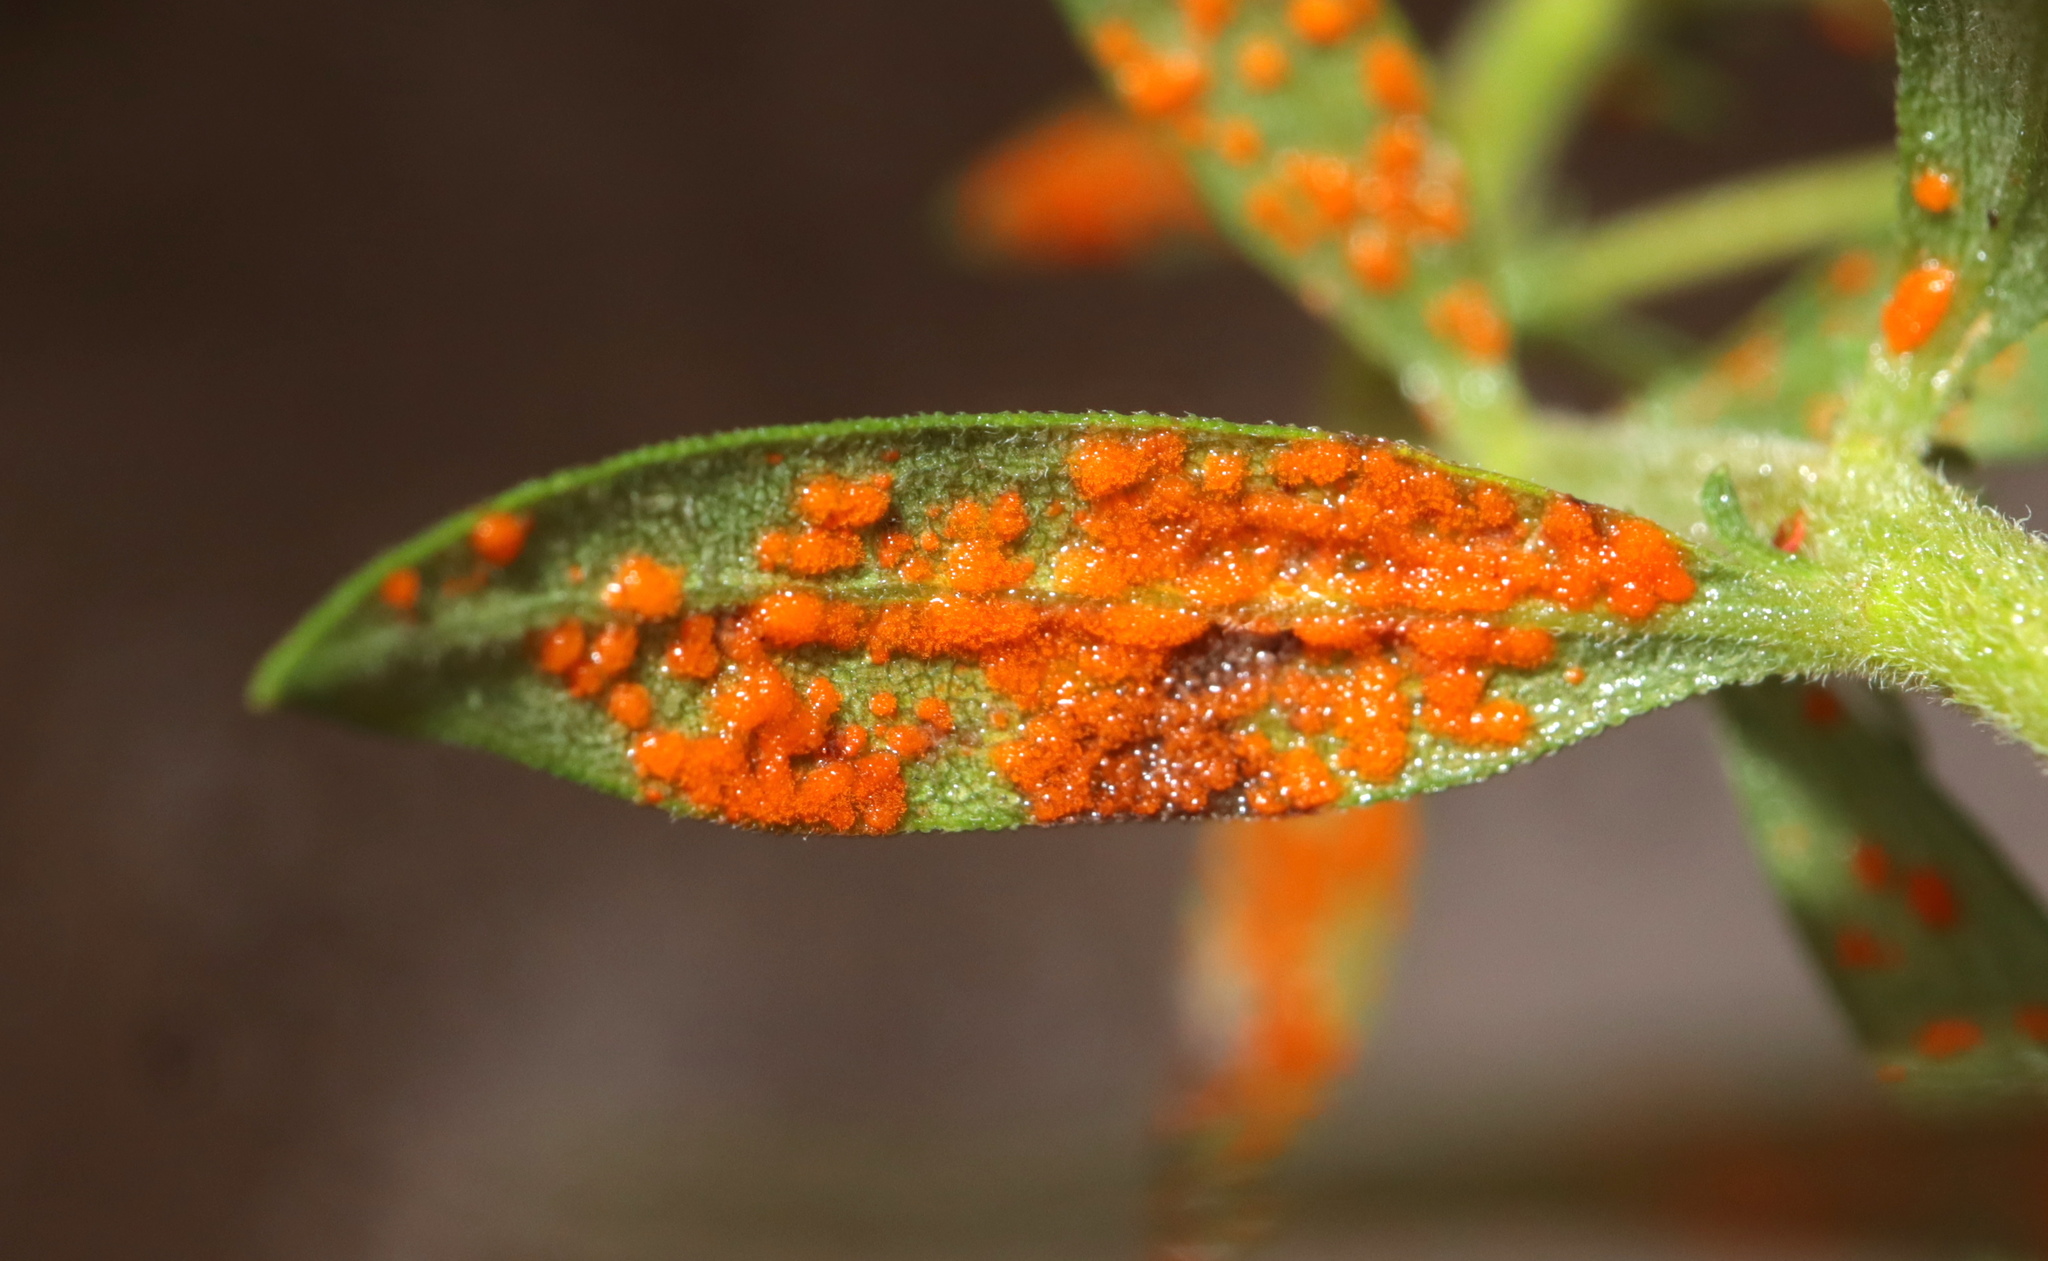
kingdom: Fungi
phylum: Basidiomycota
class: Pucciniomycetes
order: Pucciniales
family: Coleosporiaceae
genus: Coleosporium
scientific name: Coleosporium asterum
